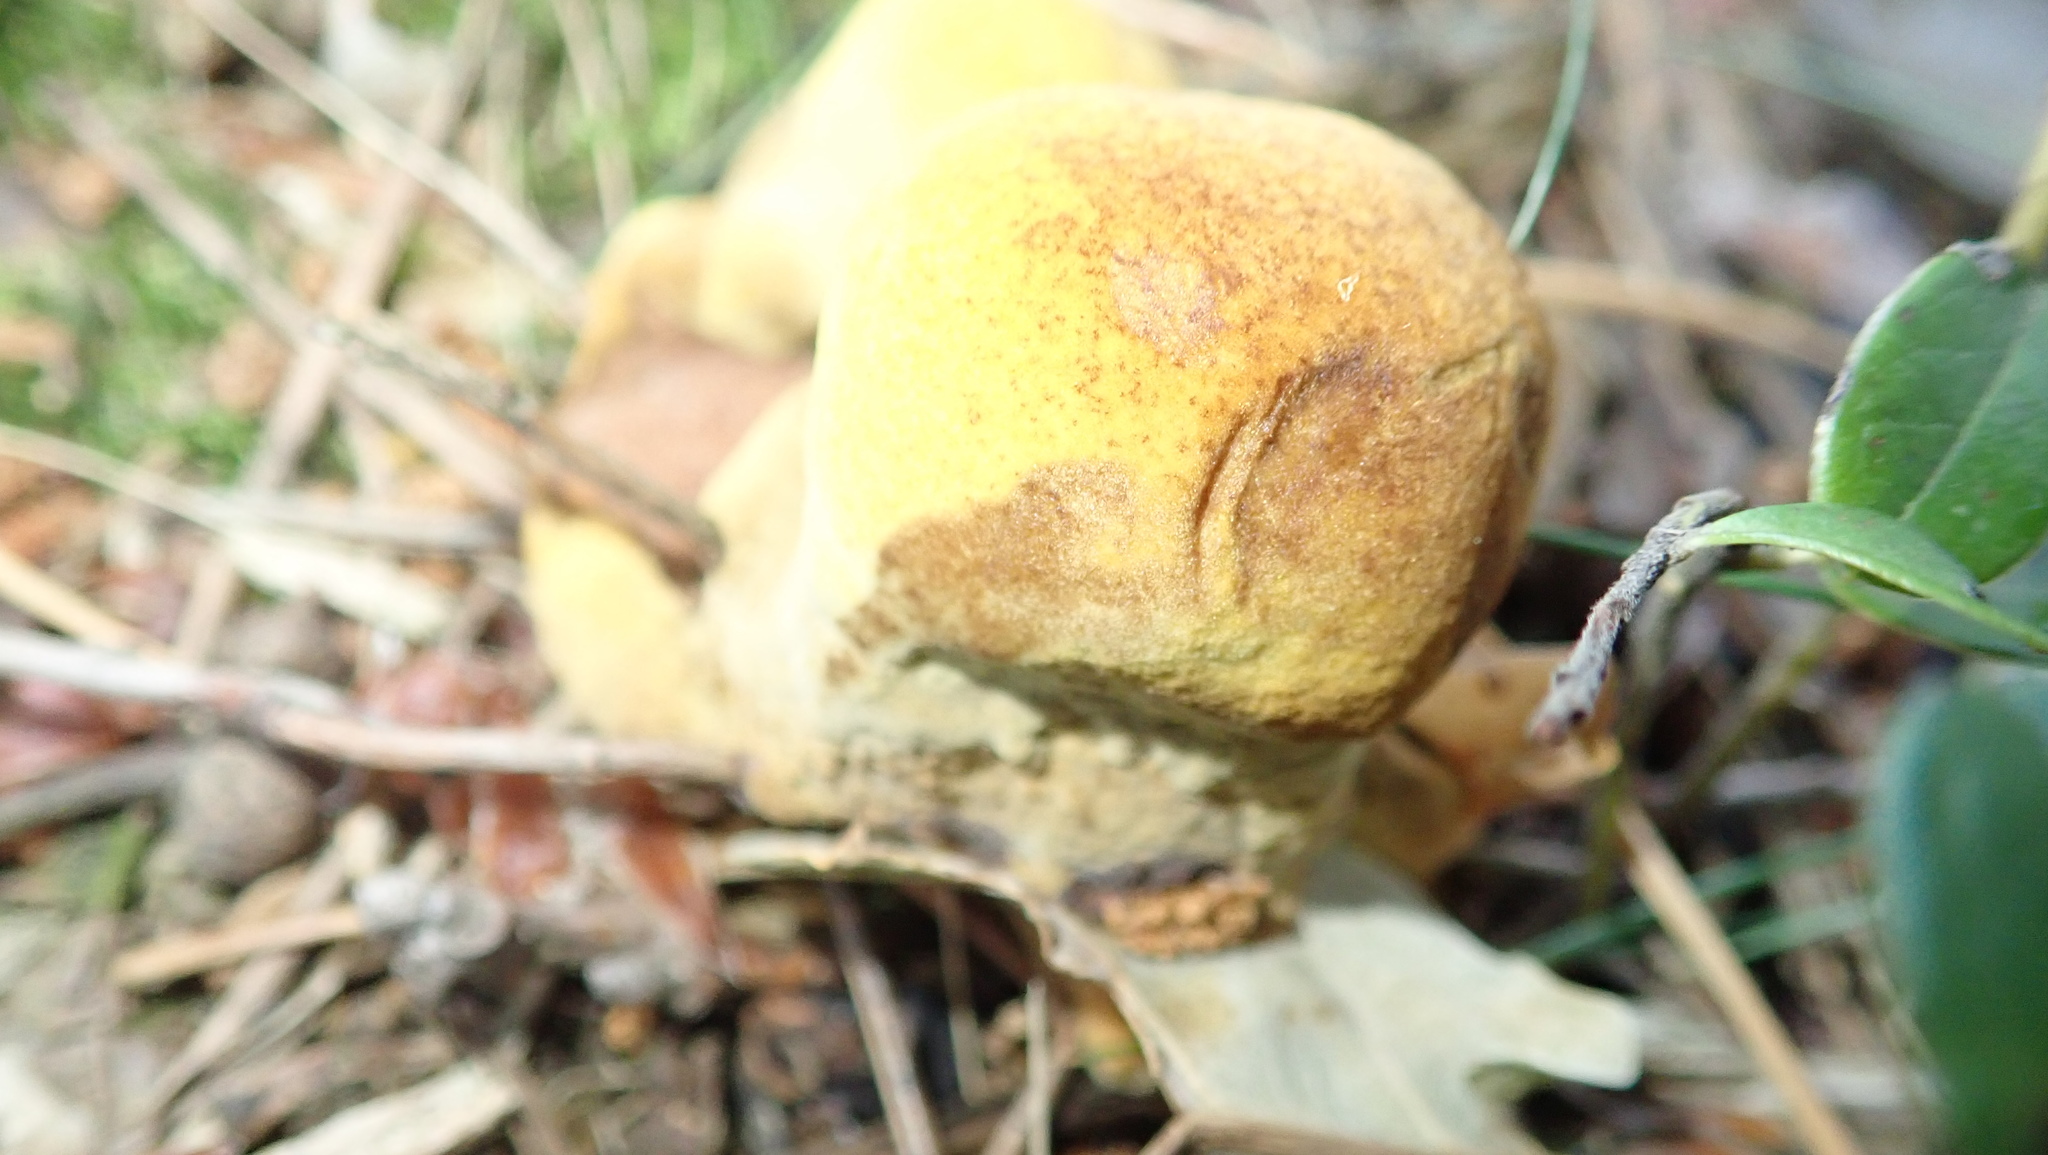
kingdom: Fungi
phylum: Basidiomycota
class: Agaricomycetes
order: Polyporales
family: Laetiporaceae
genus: Phaeolus
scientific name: Phaeolus schweinitzii
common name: Dyer's mazegill
